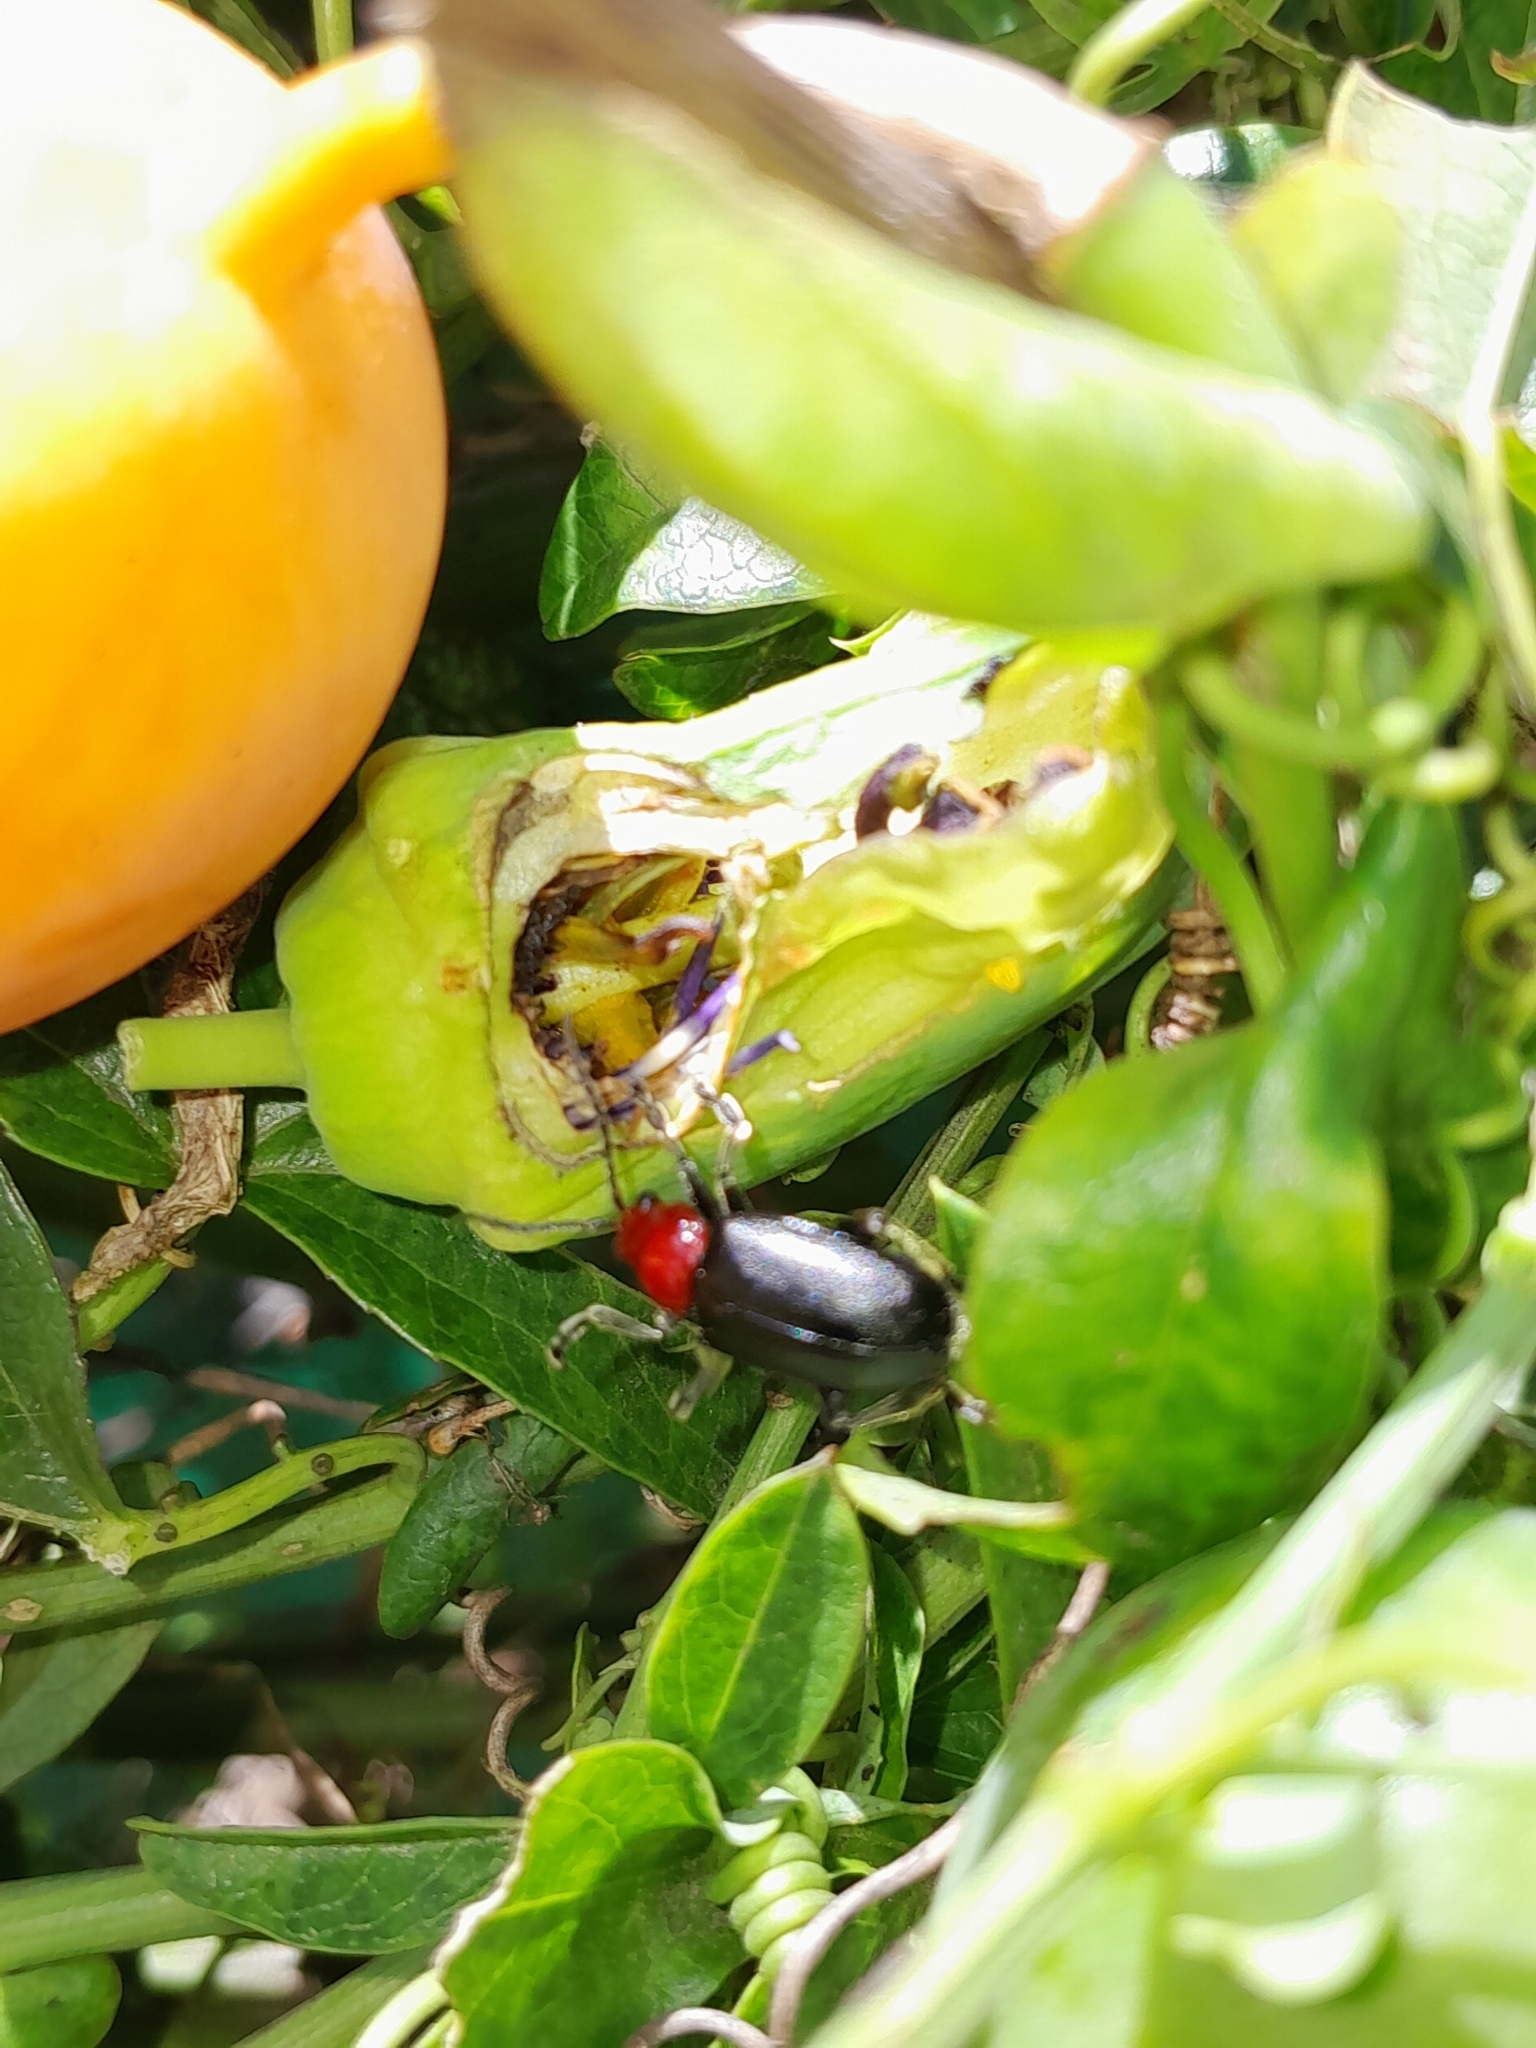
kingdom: Animalia
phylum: Arthropoda
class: Insecta
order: Coleoptera
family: Chrysomelidae
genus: Cacoscelis
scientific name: Cacoscelis
